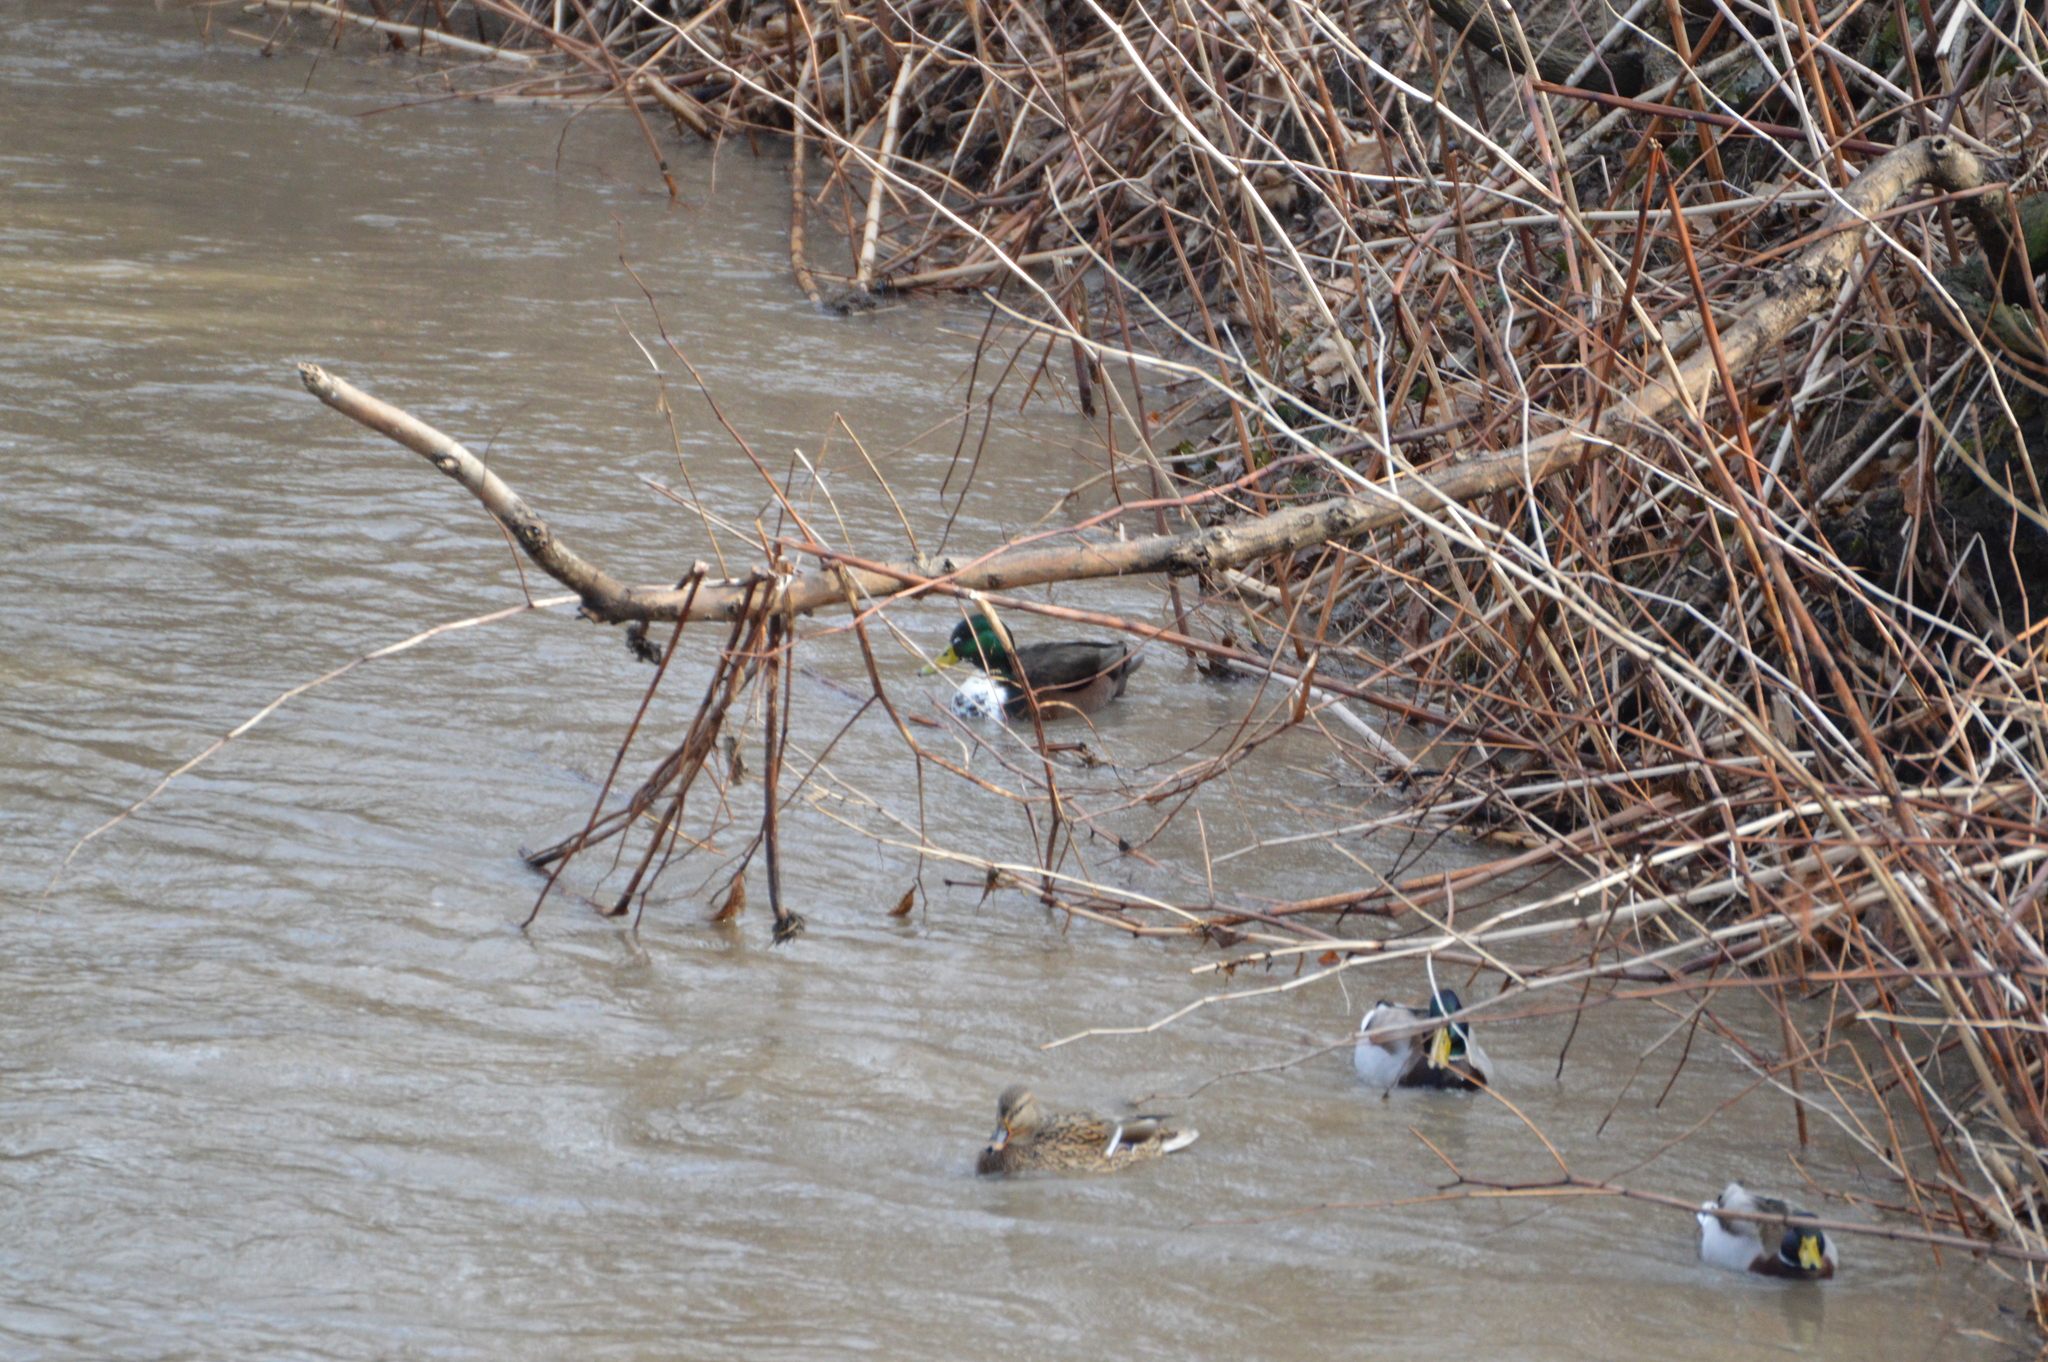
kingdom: Animalia
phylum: Chordata
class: Aves
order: Anseriformes
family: Anatidae
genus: Anas
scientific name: Anas platyrhynchos
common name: Mallard
